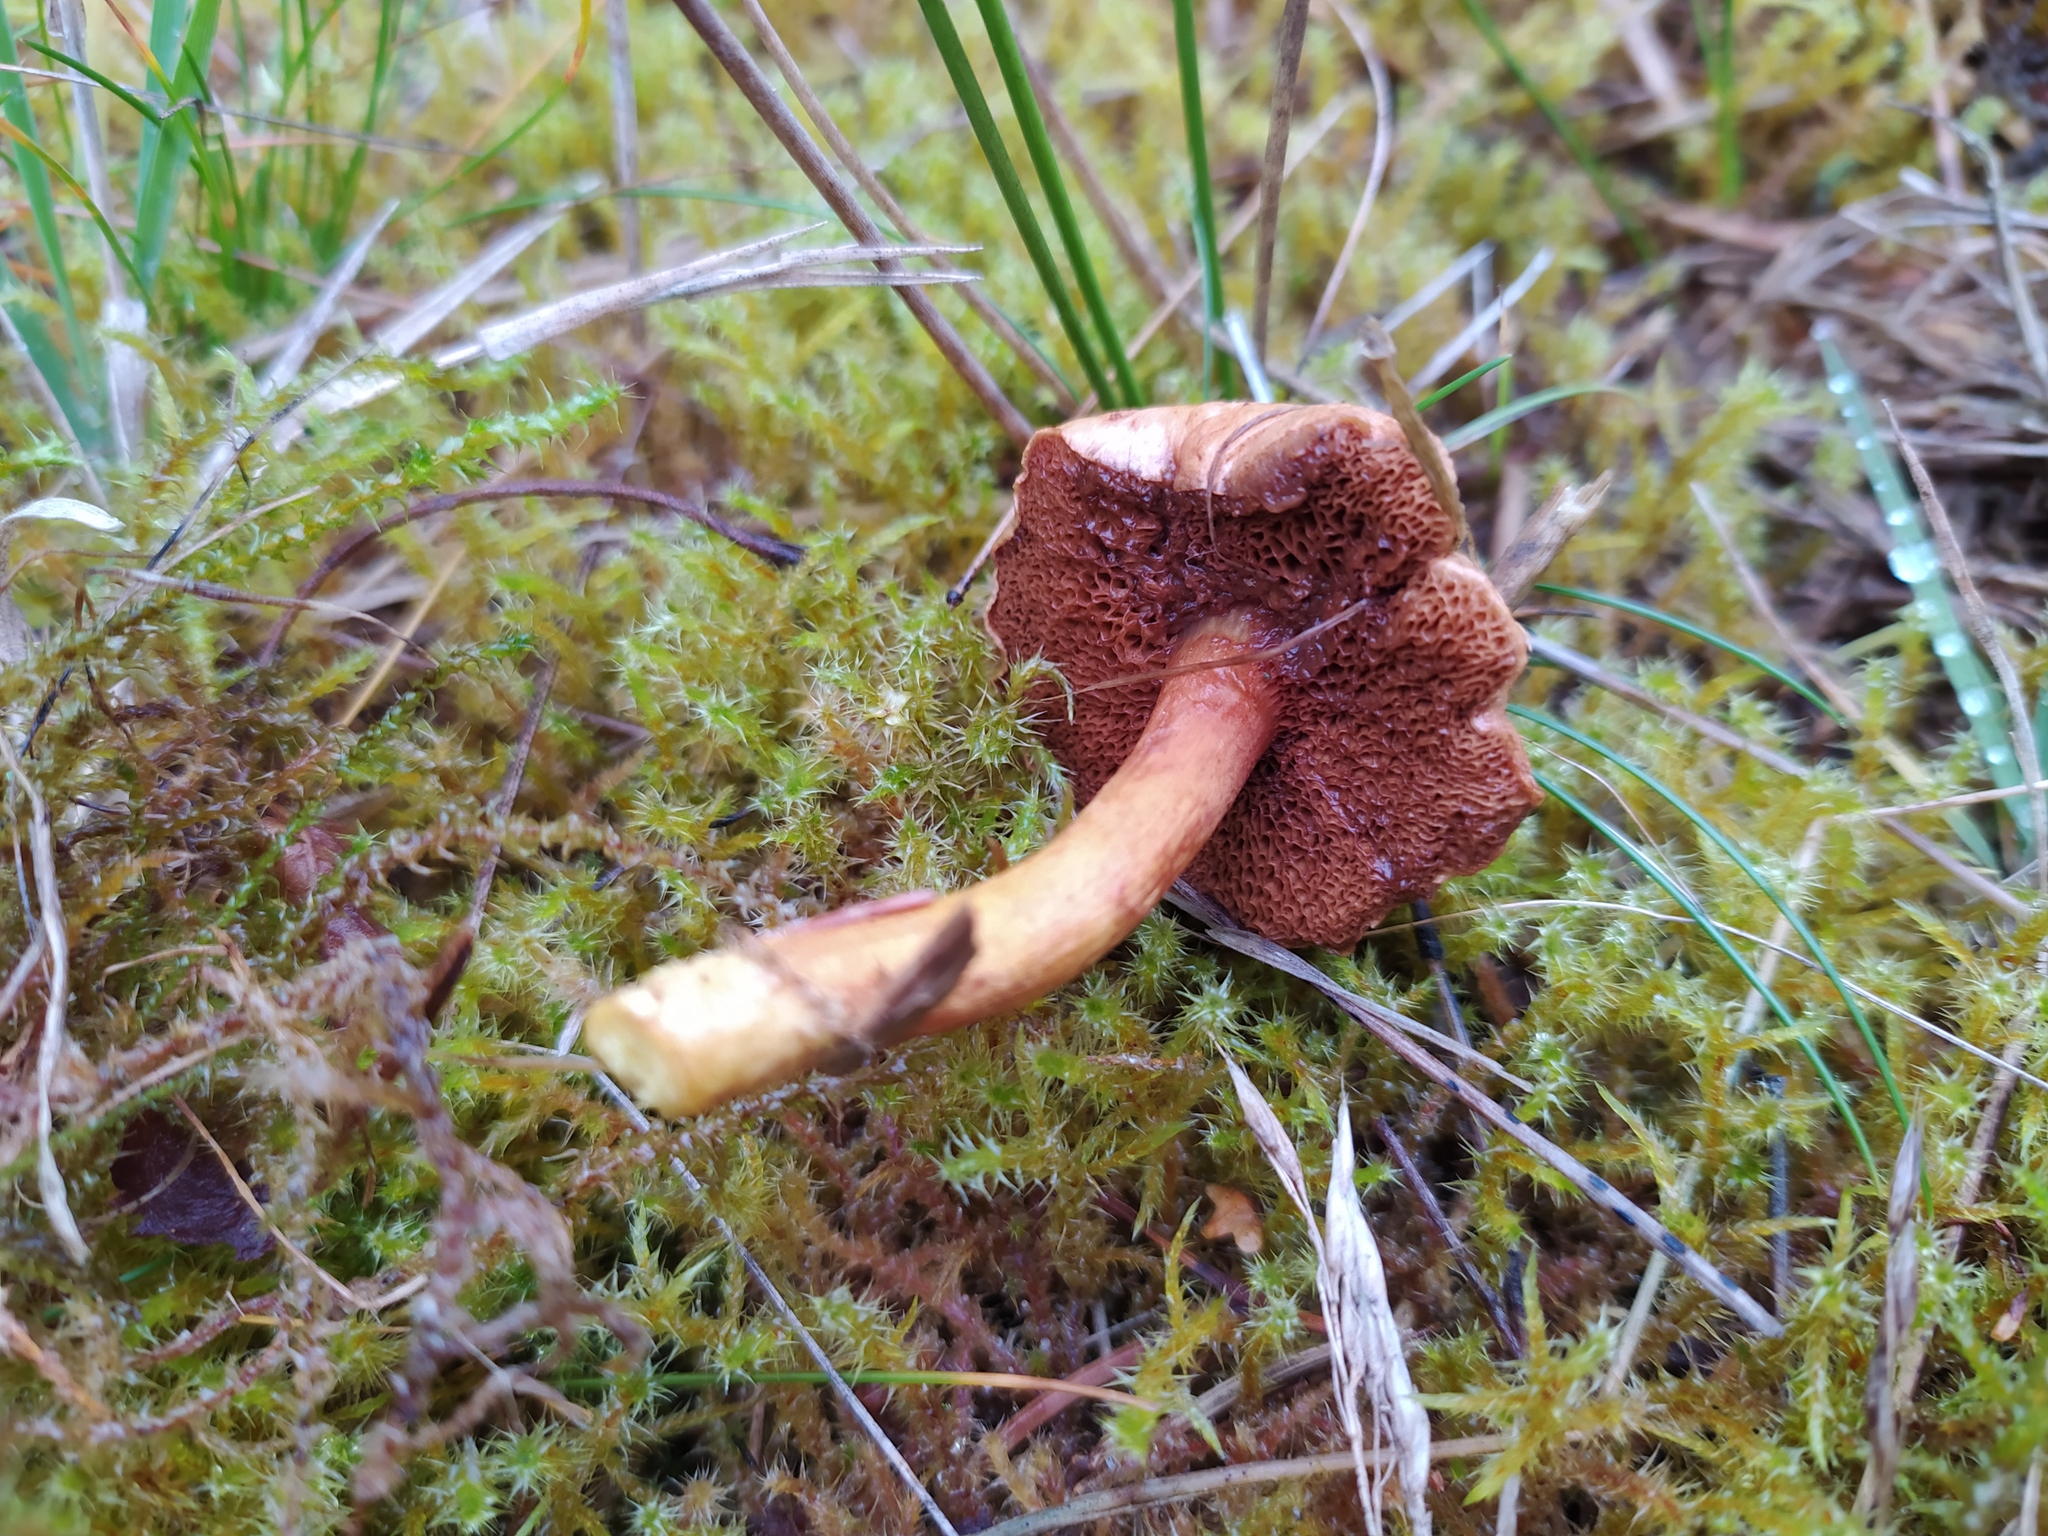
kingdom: Fungi
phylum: Basidiomycota
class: Agaricomycetes
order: Boletales
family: Boletaceae
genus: Chalciporus
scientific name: Chalciporus piperatus
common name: Peppery bolete
